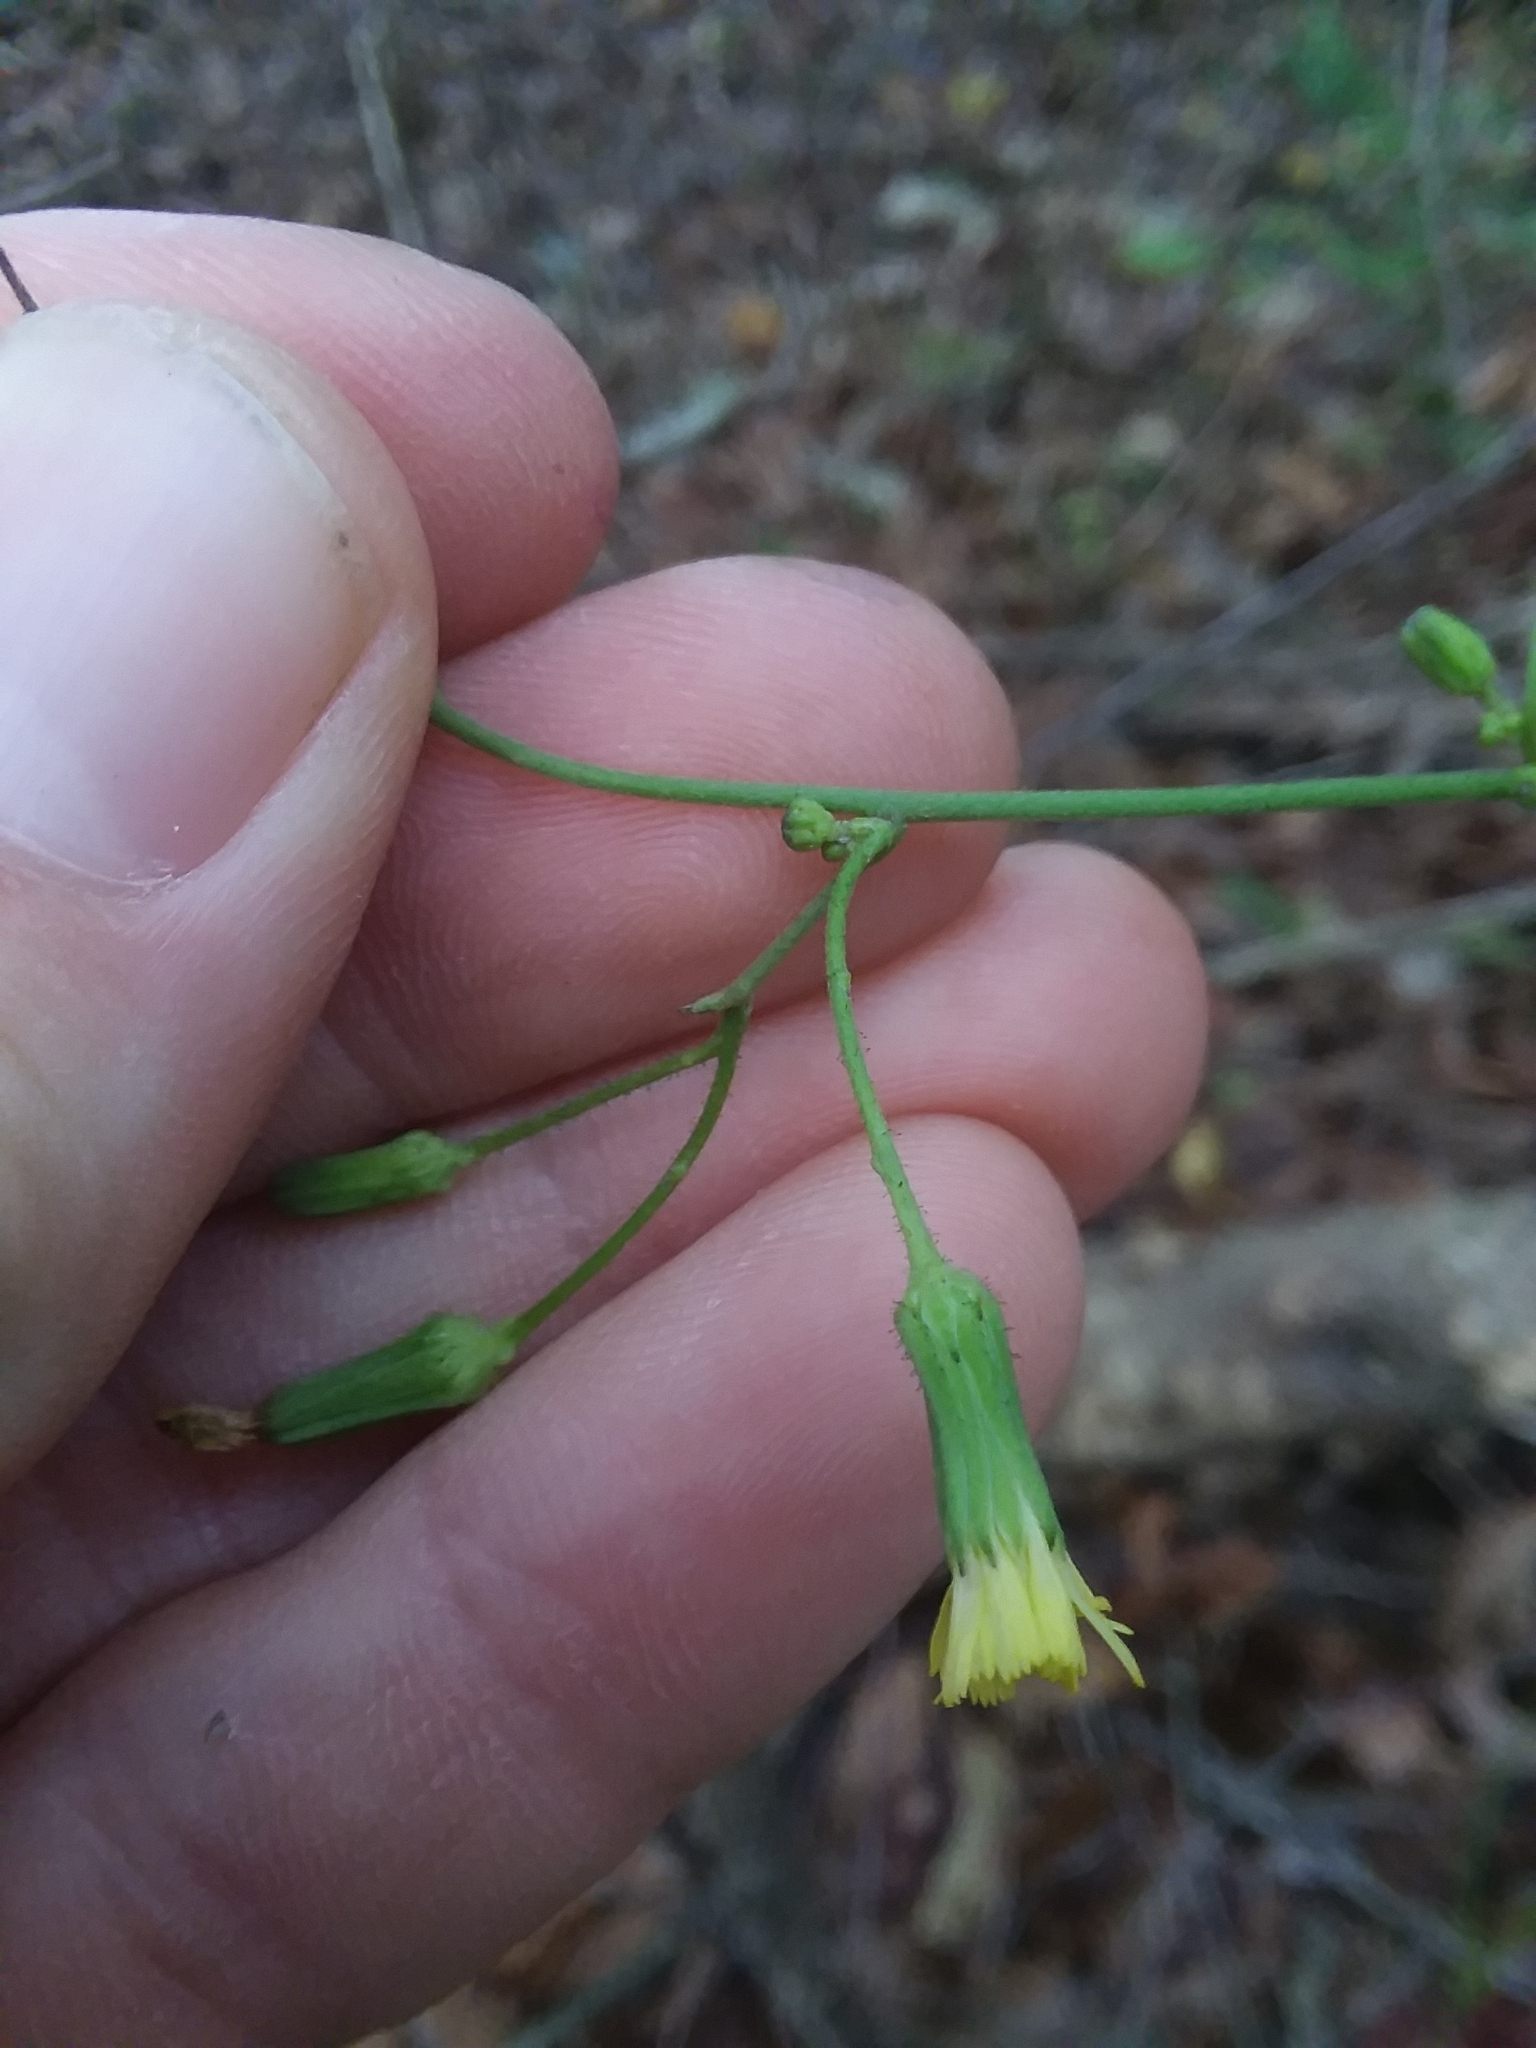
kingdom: Plantae
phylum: Tracheophyta
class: Magnoliopsida
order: Asterales
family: Asteraceae
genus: Hieracium
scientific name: Hieracium gronovii
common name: Beaked hawkweed
